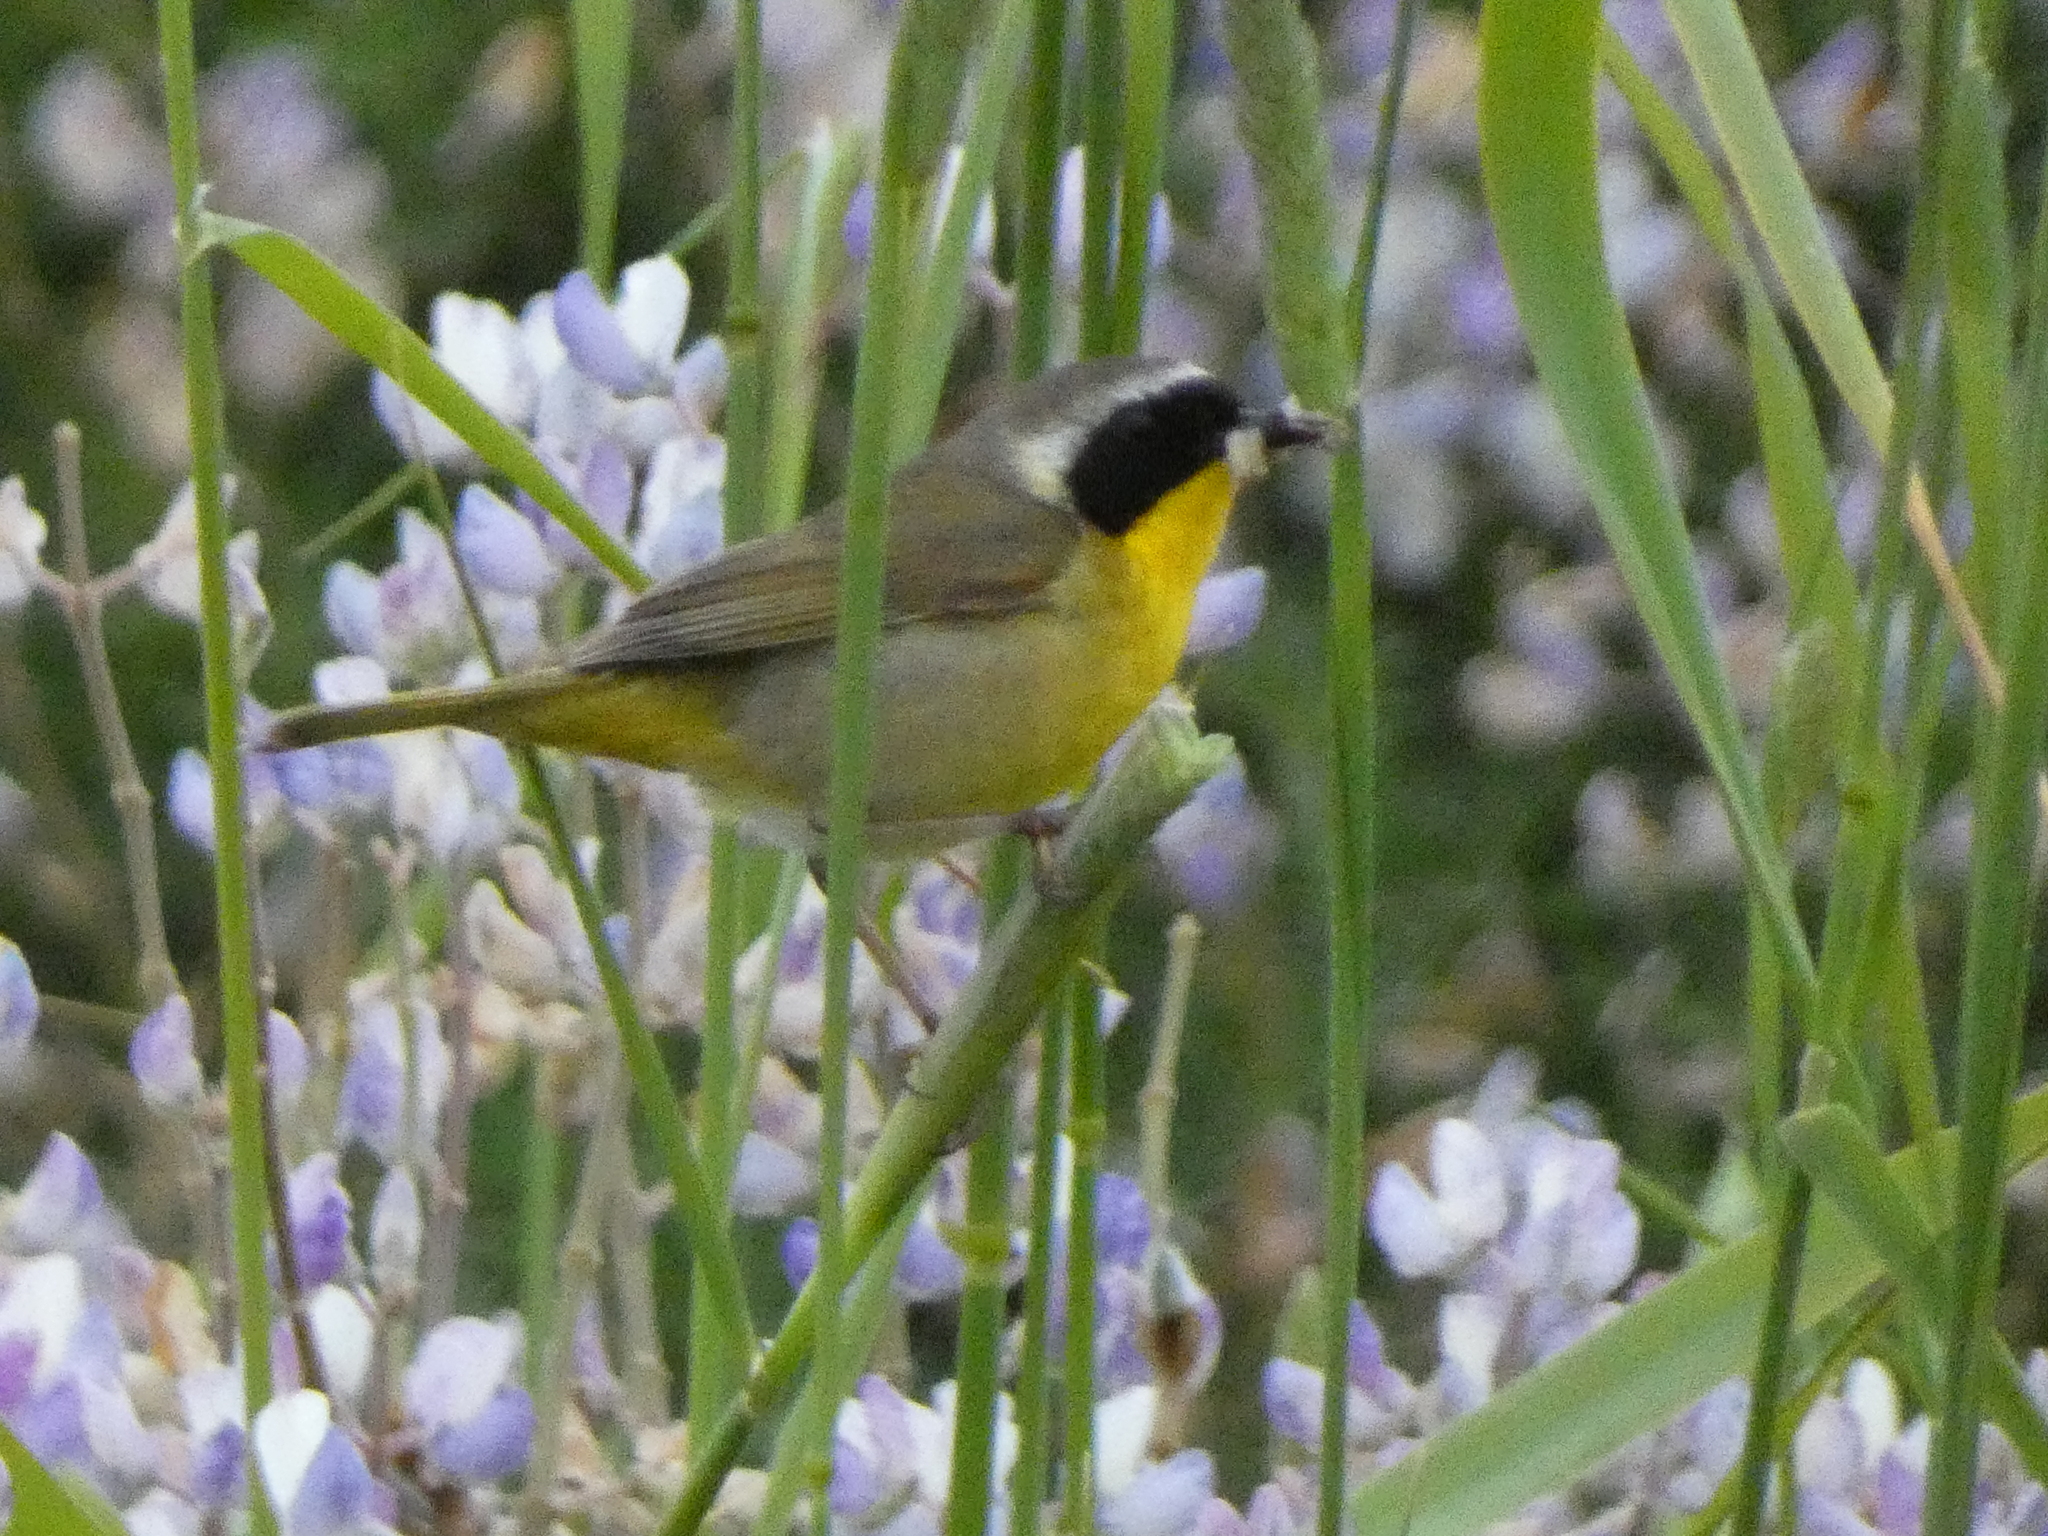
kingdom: Animalia
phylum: Chordata
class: Aves
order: Passeriformes
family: Parulidae
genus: Geothlypis
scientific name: Geothlypis trichas
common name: Common yellowthroat
